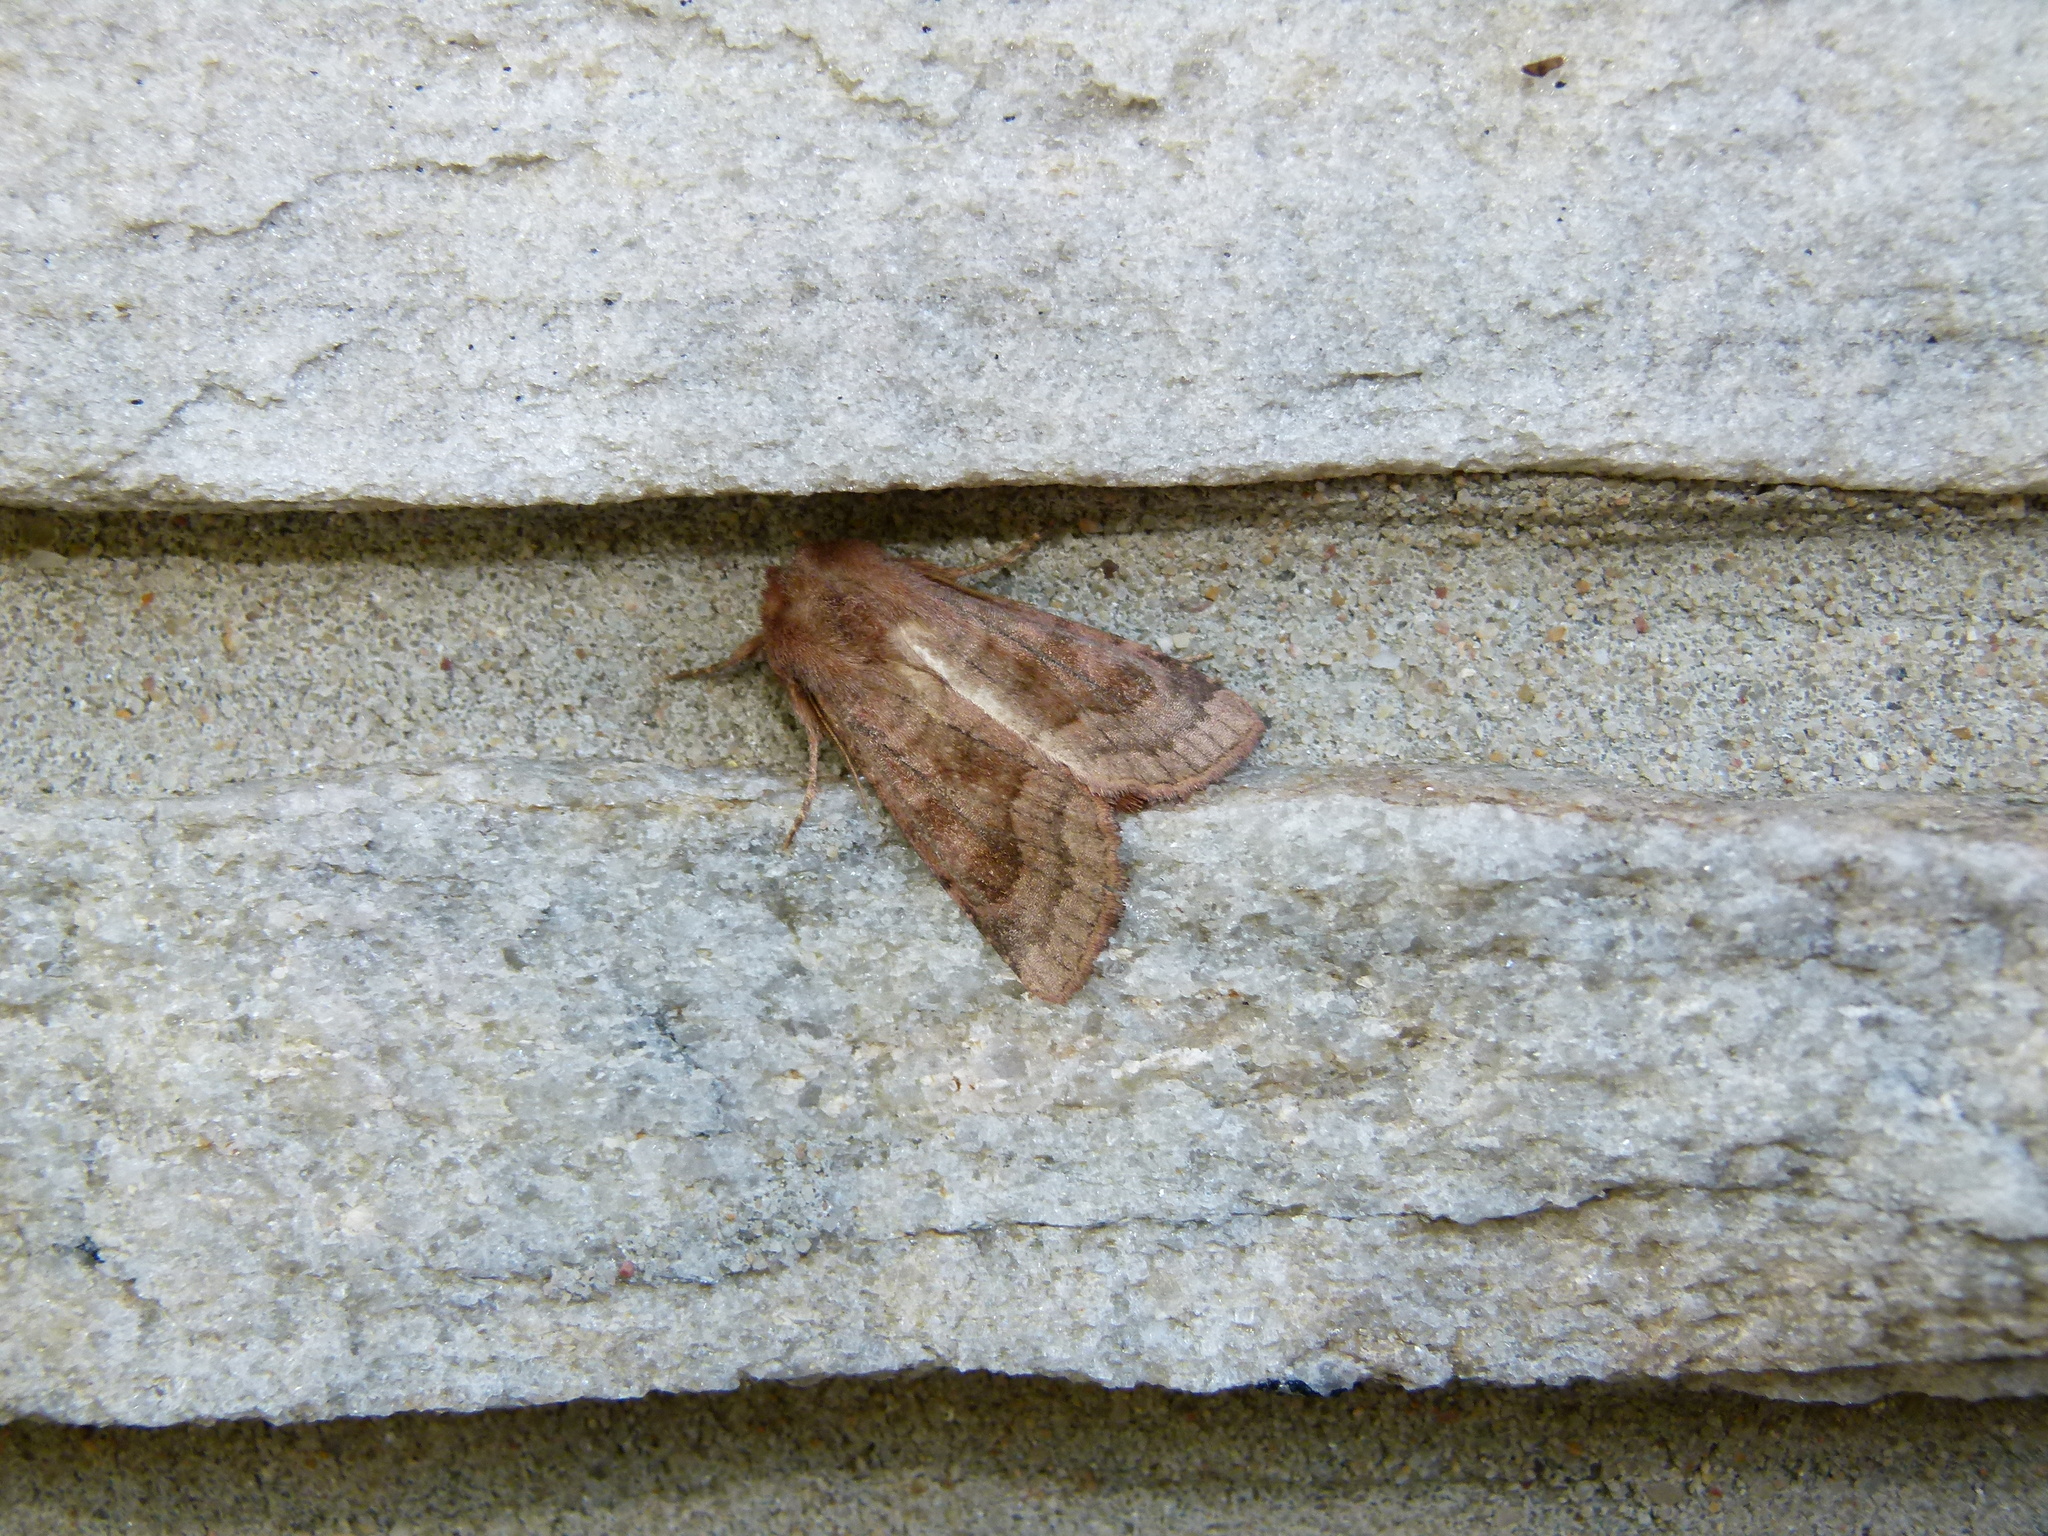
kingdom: Animalia
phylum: Arthropoda
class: Insecta
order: Lepidoptera
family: Noctuidae
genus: Nephelodes
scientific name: Nephelodes minians
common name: Bronzed cutworm
